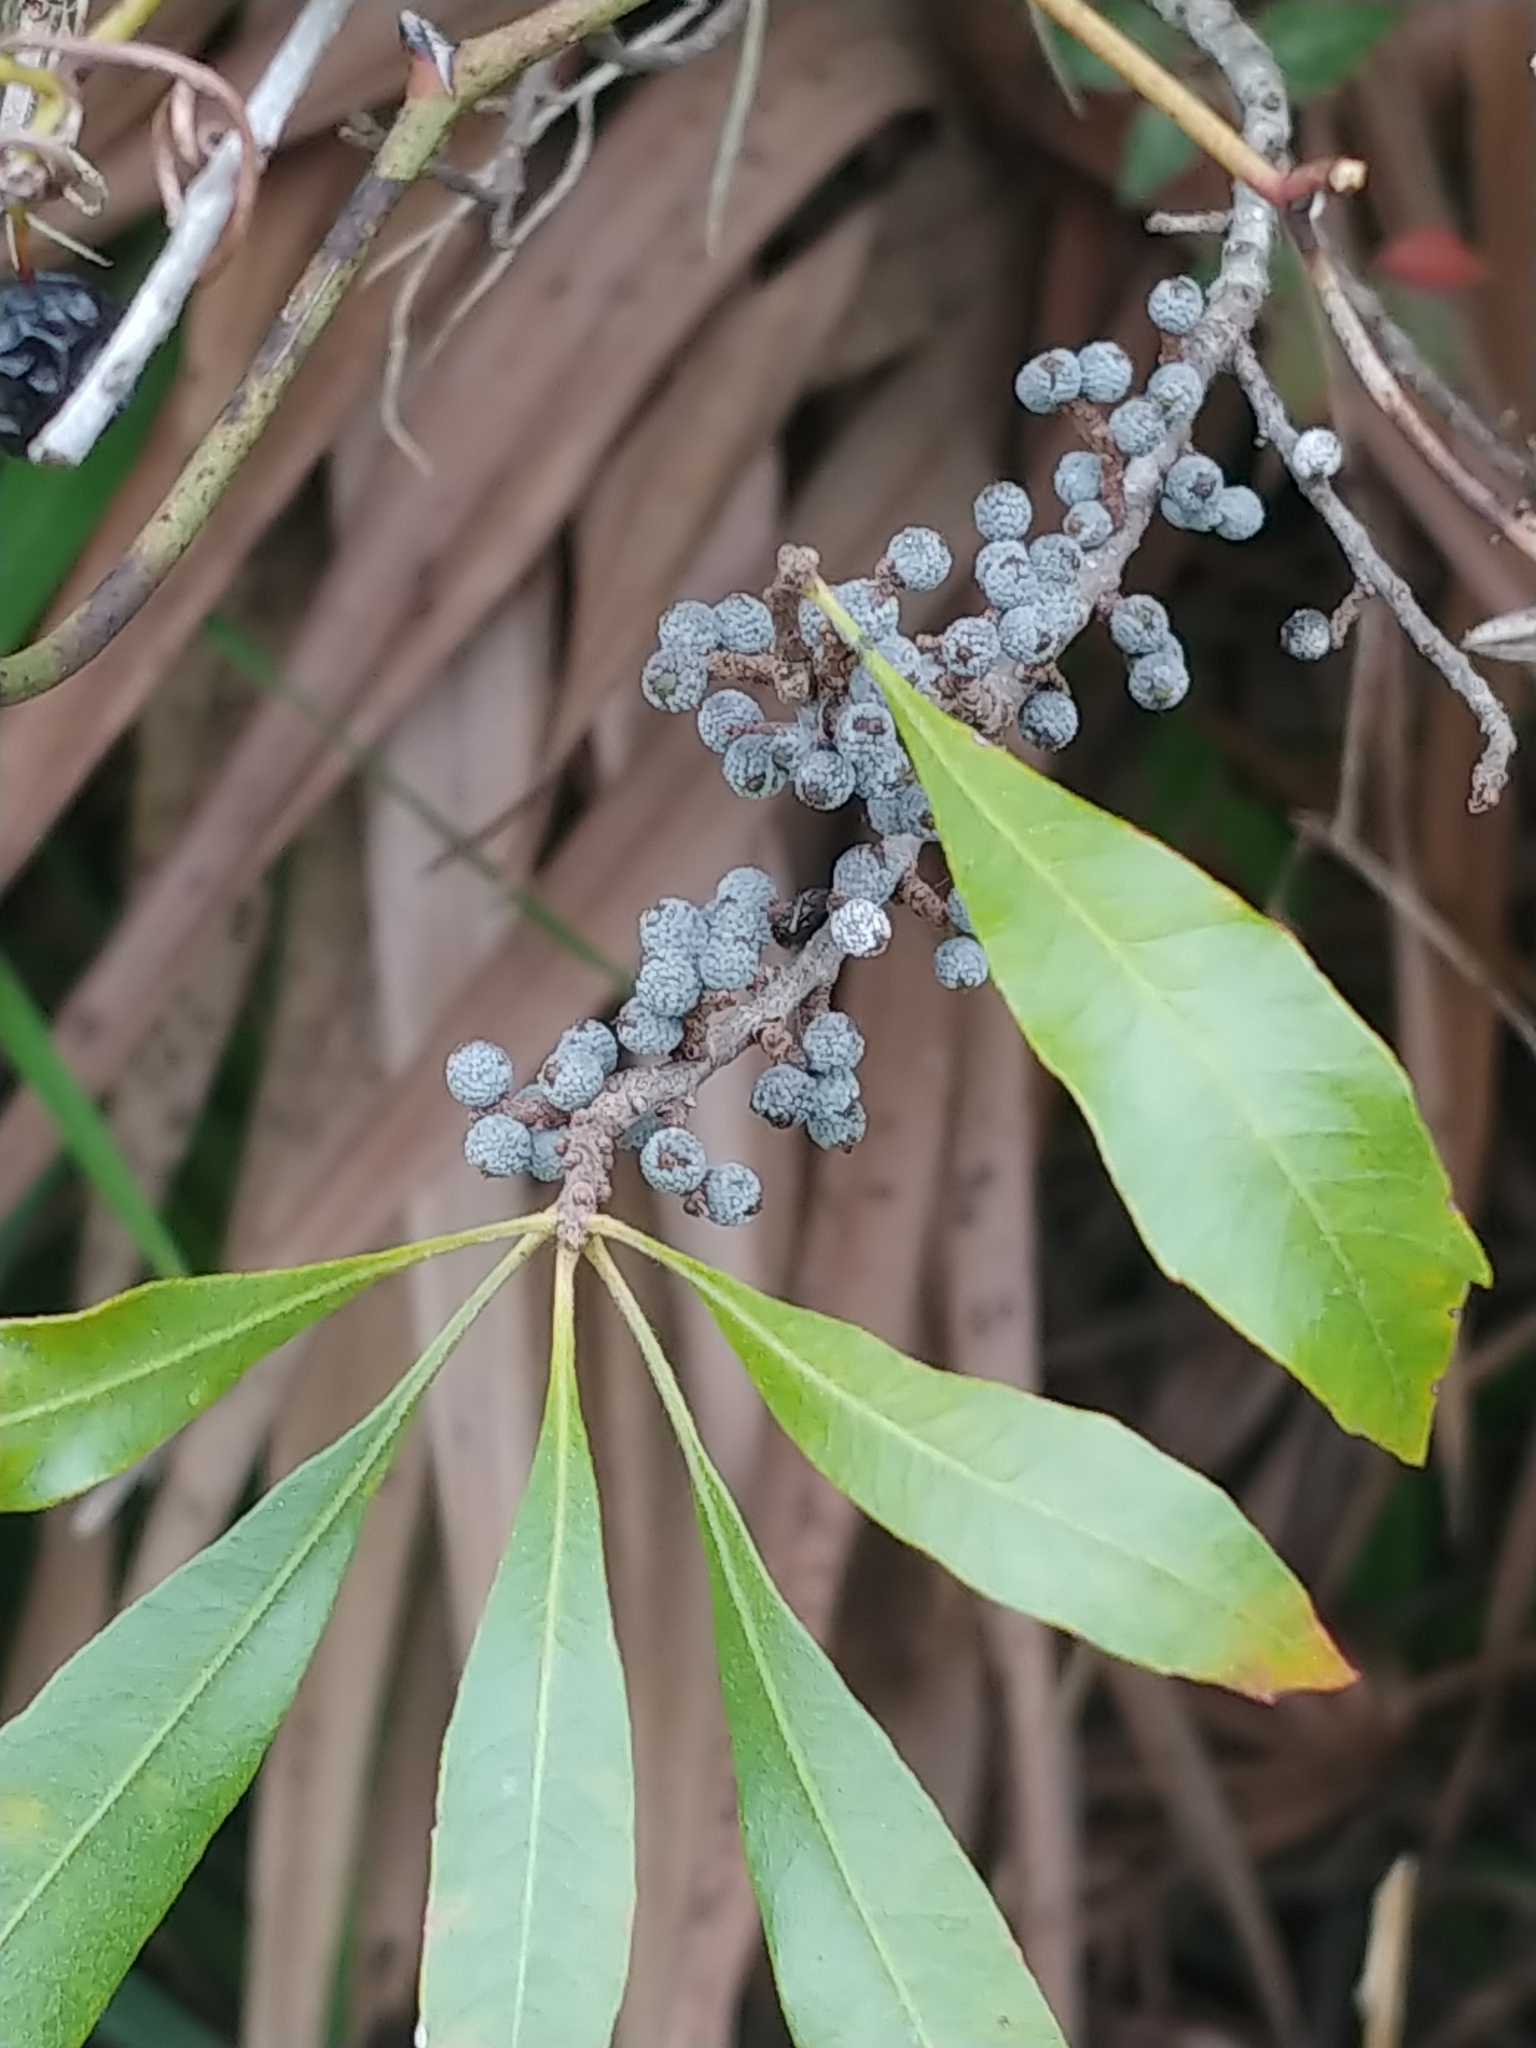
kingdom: Plantae
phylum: Tracheophyta
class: Magnoliopsida
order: Fagales
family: Myricaceae
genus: Morella
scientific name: Morella cerifera
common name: Wax myrtle
